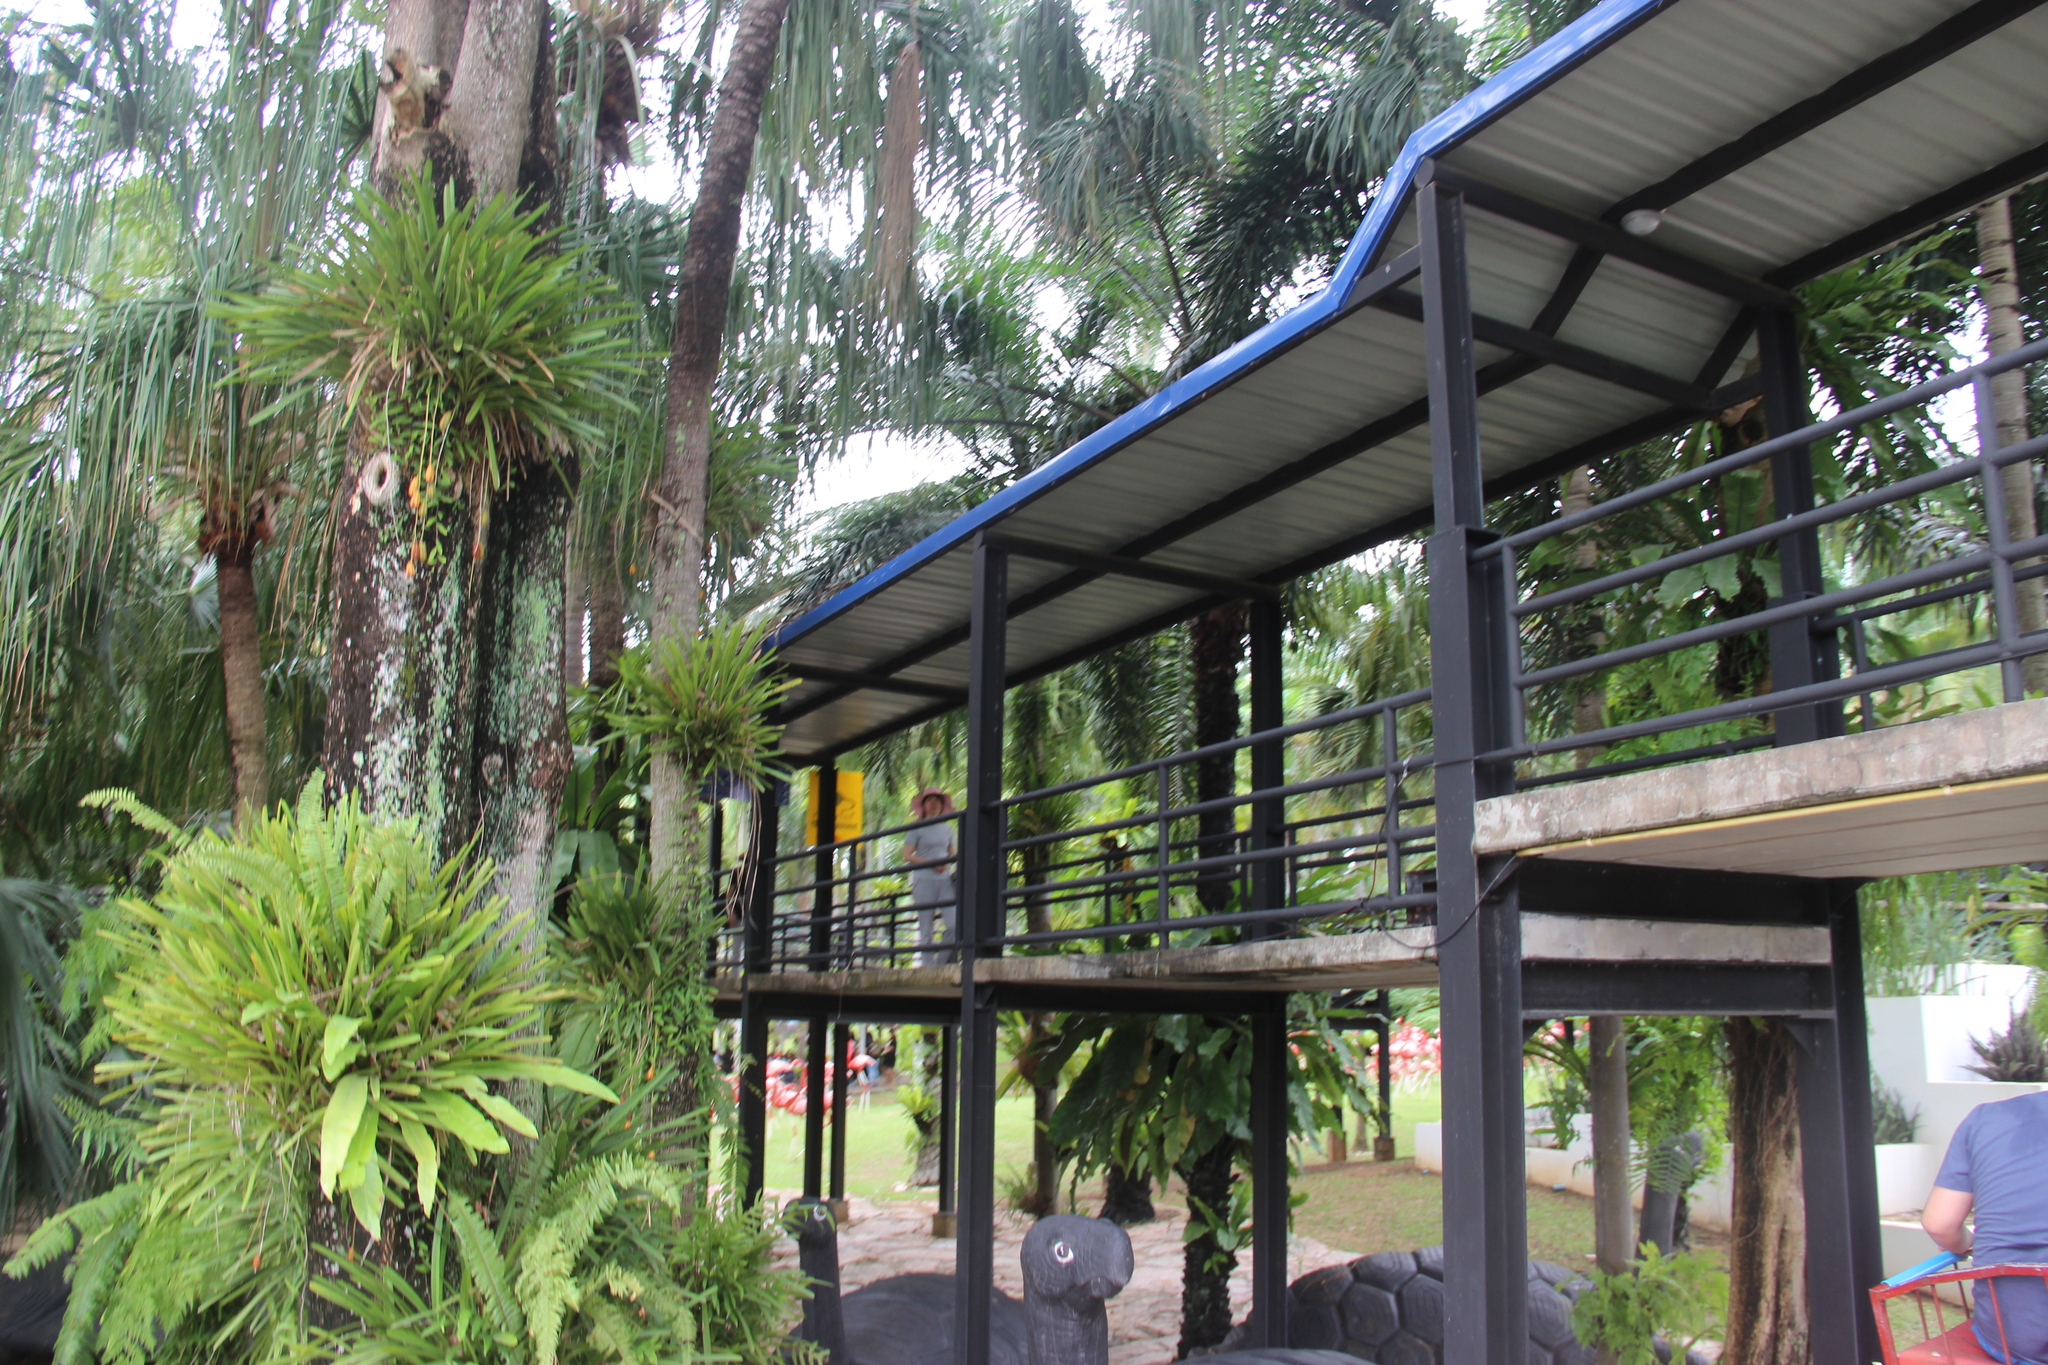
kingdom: Plantae
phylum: Tracheophyta
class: Liliopsida
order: Asparagales
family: Orchidaceae
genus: Cymbidium
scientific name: Cymbidium aloifolium
